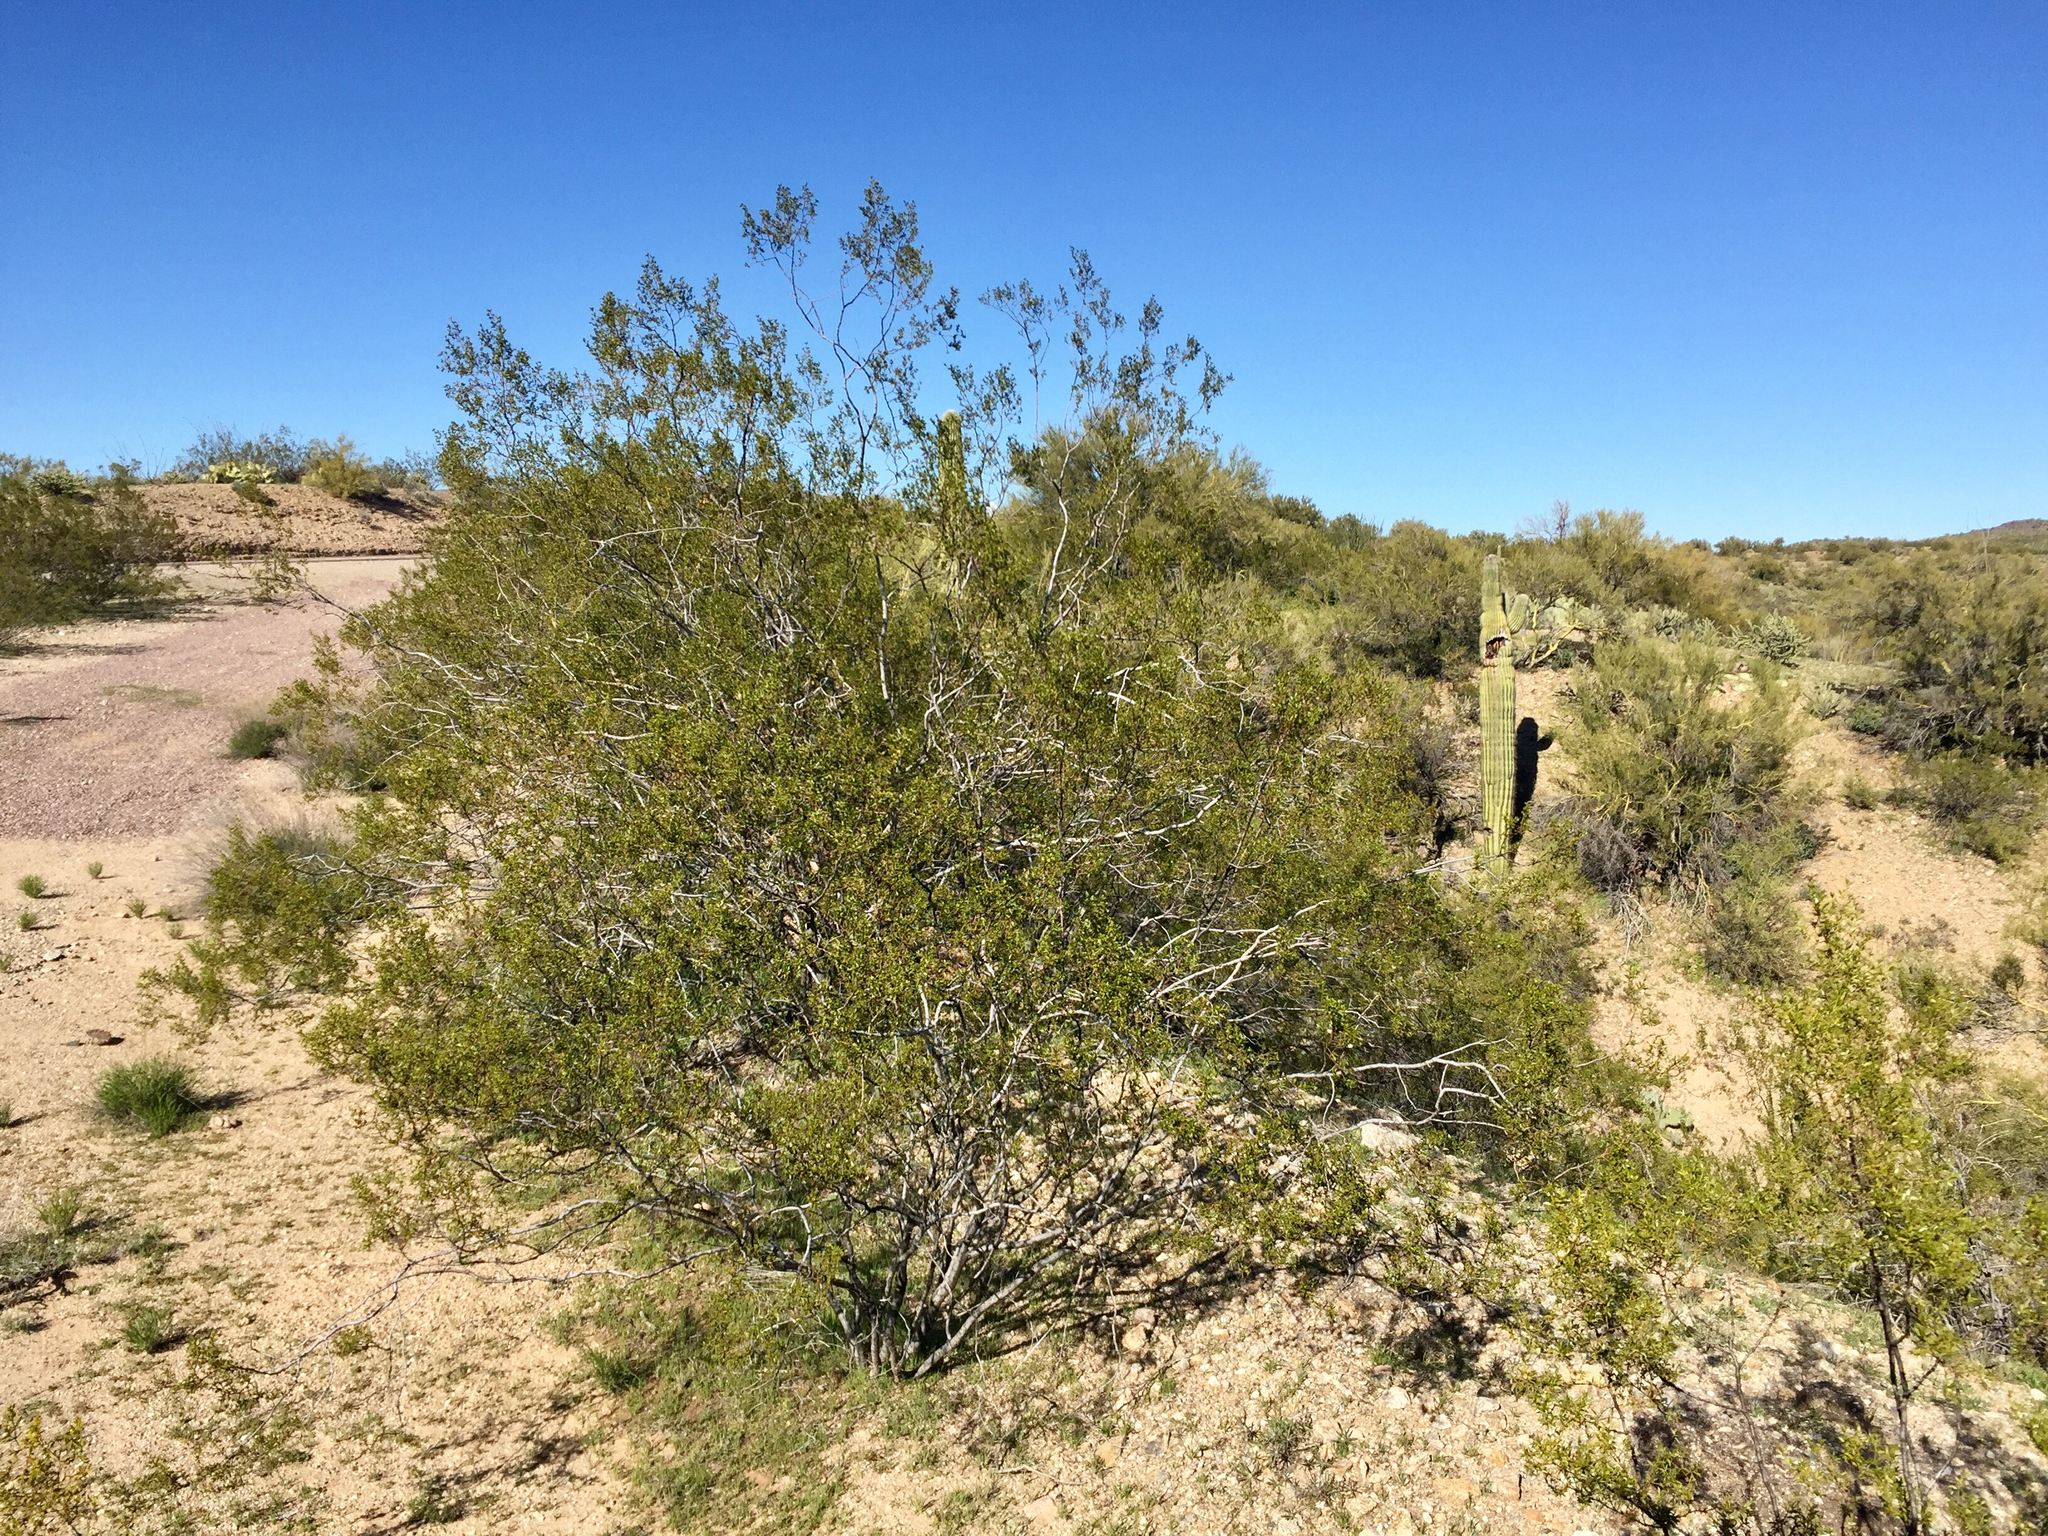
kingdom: Plantae
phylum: Tracheophyta
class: Magnoliopsida
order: Zygophyllales
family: Zygophyllaceae
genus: Larrea
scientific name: Larrea tridentata
